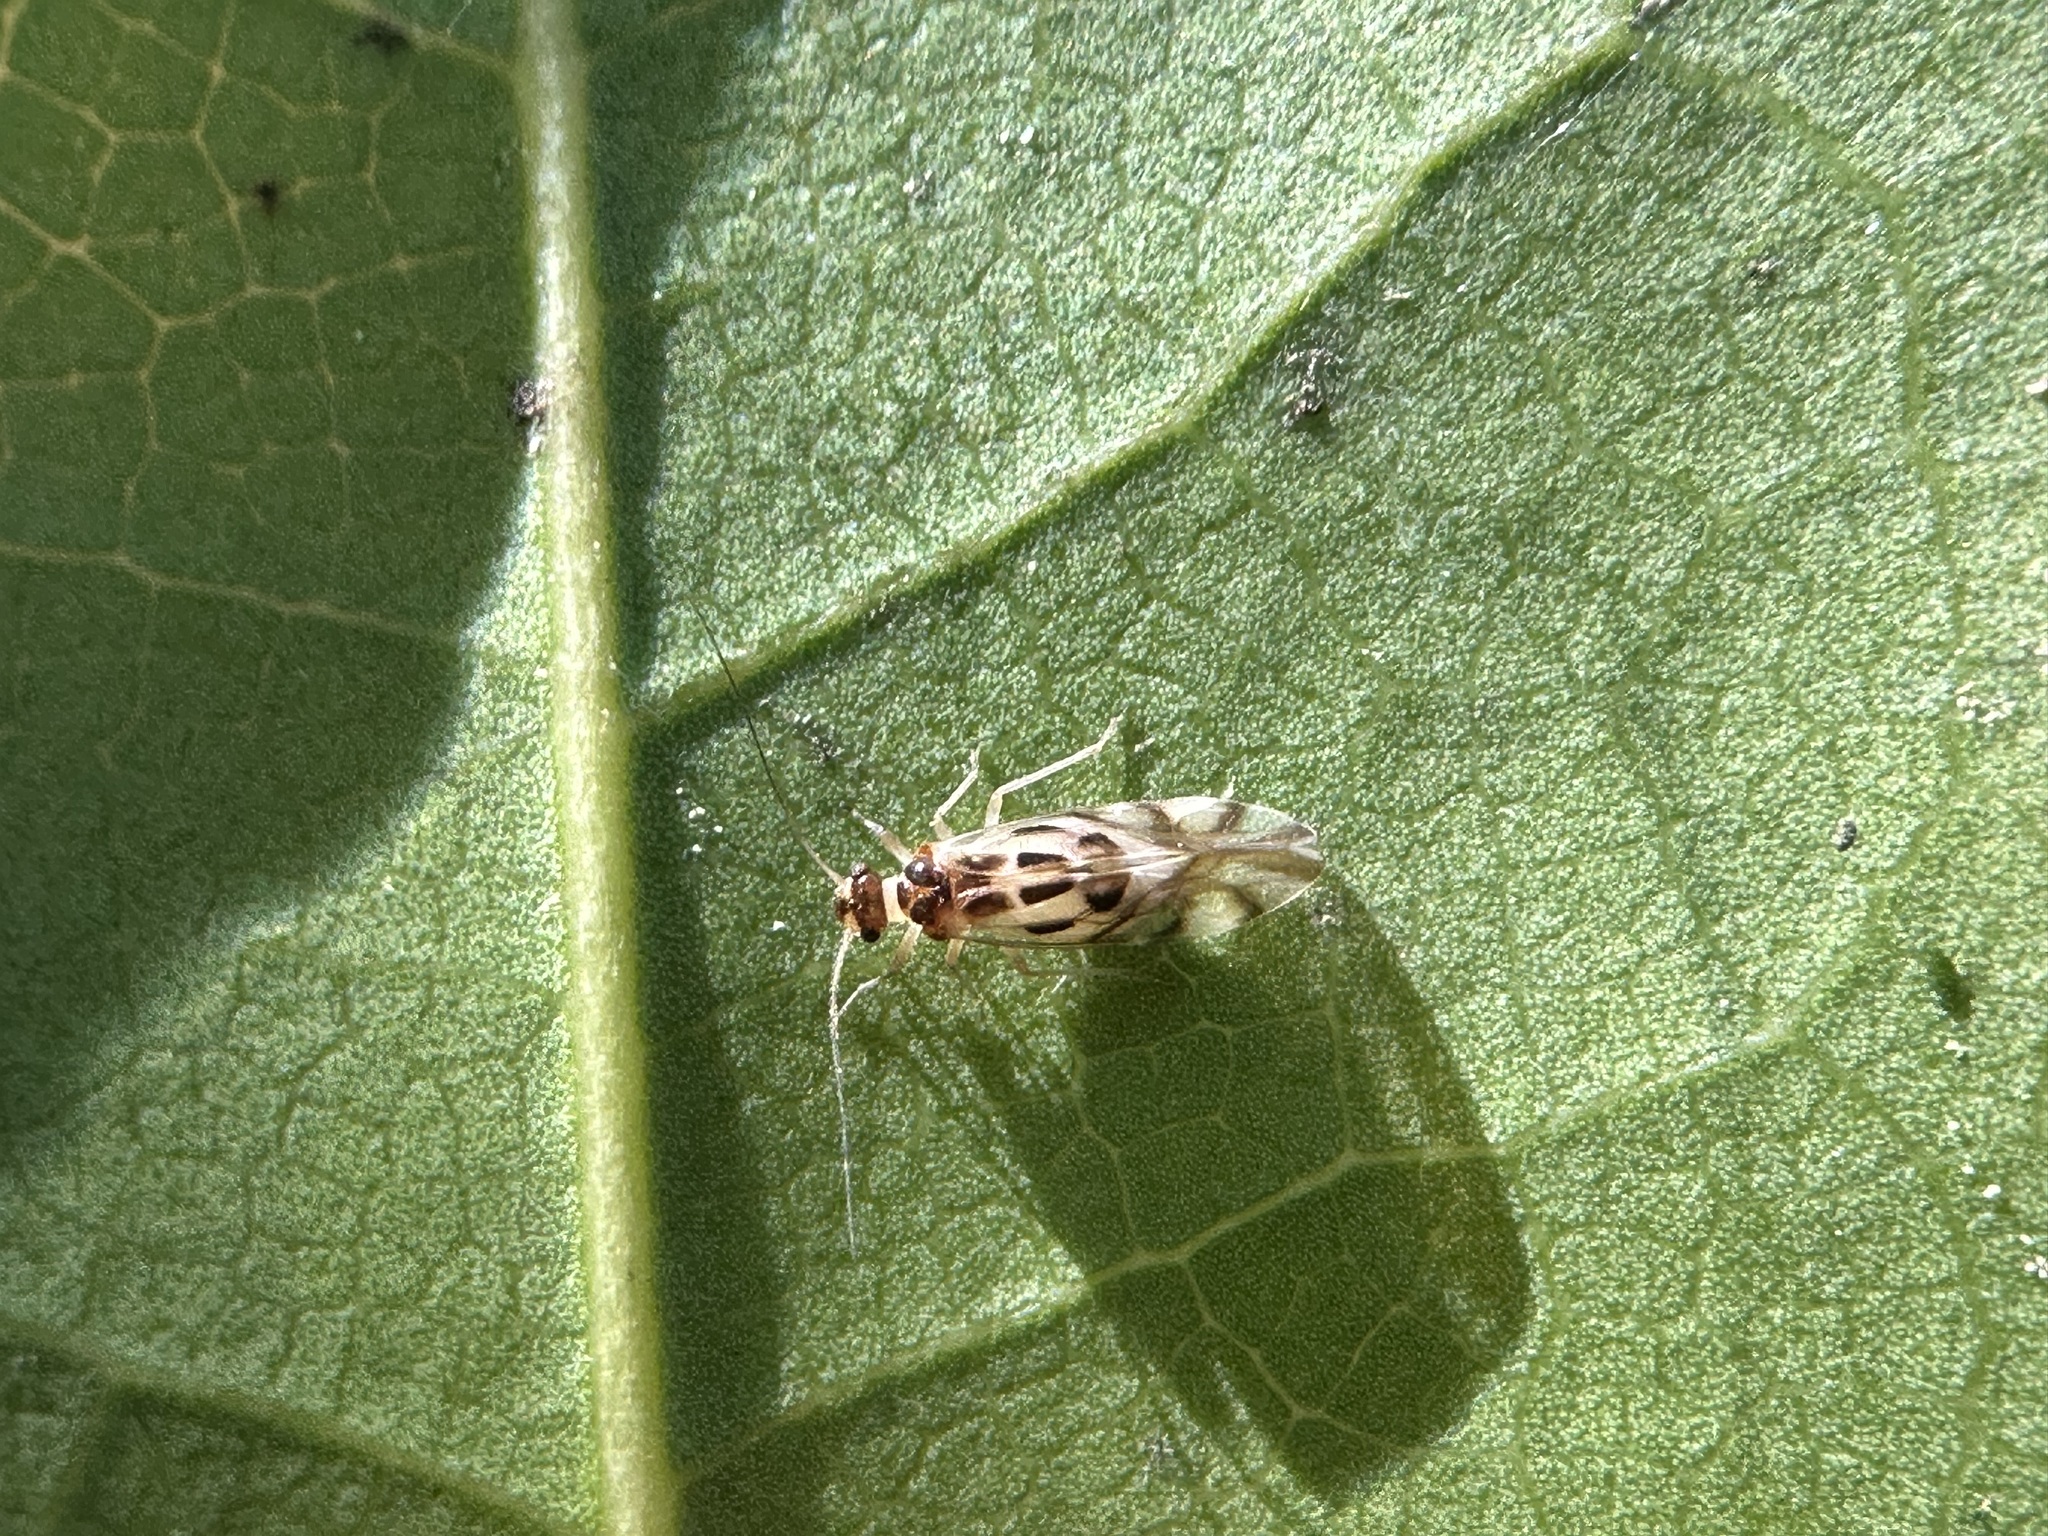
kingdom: Animalia
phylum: Arthropoda
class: Insecta
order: Psocodea
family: Stenopsocidae
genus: Graphopsocus
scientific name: Graphopsocus cruciatus
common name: Lizard bark louse
